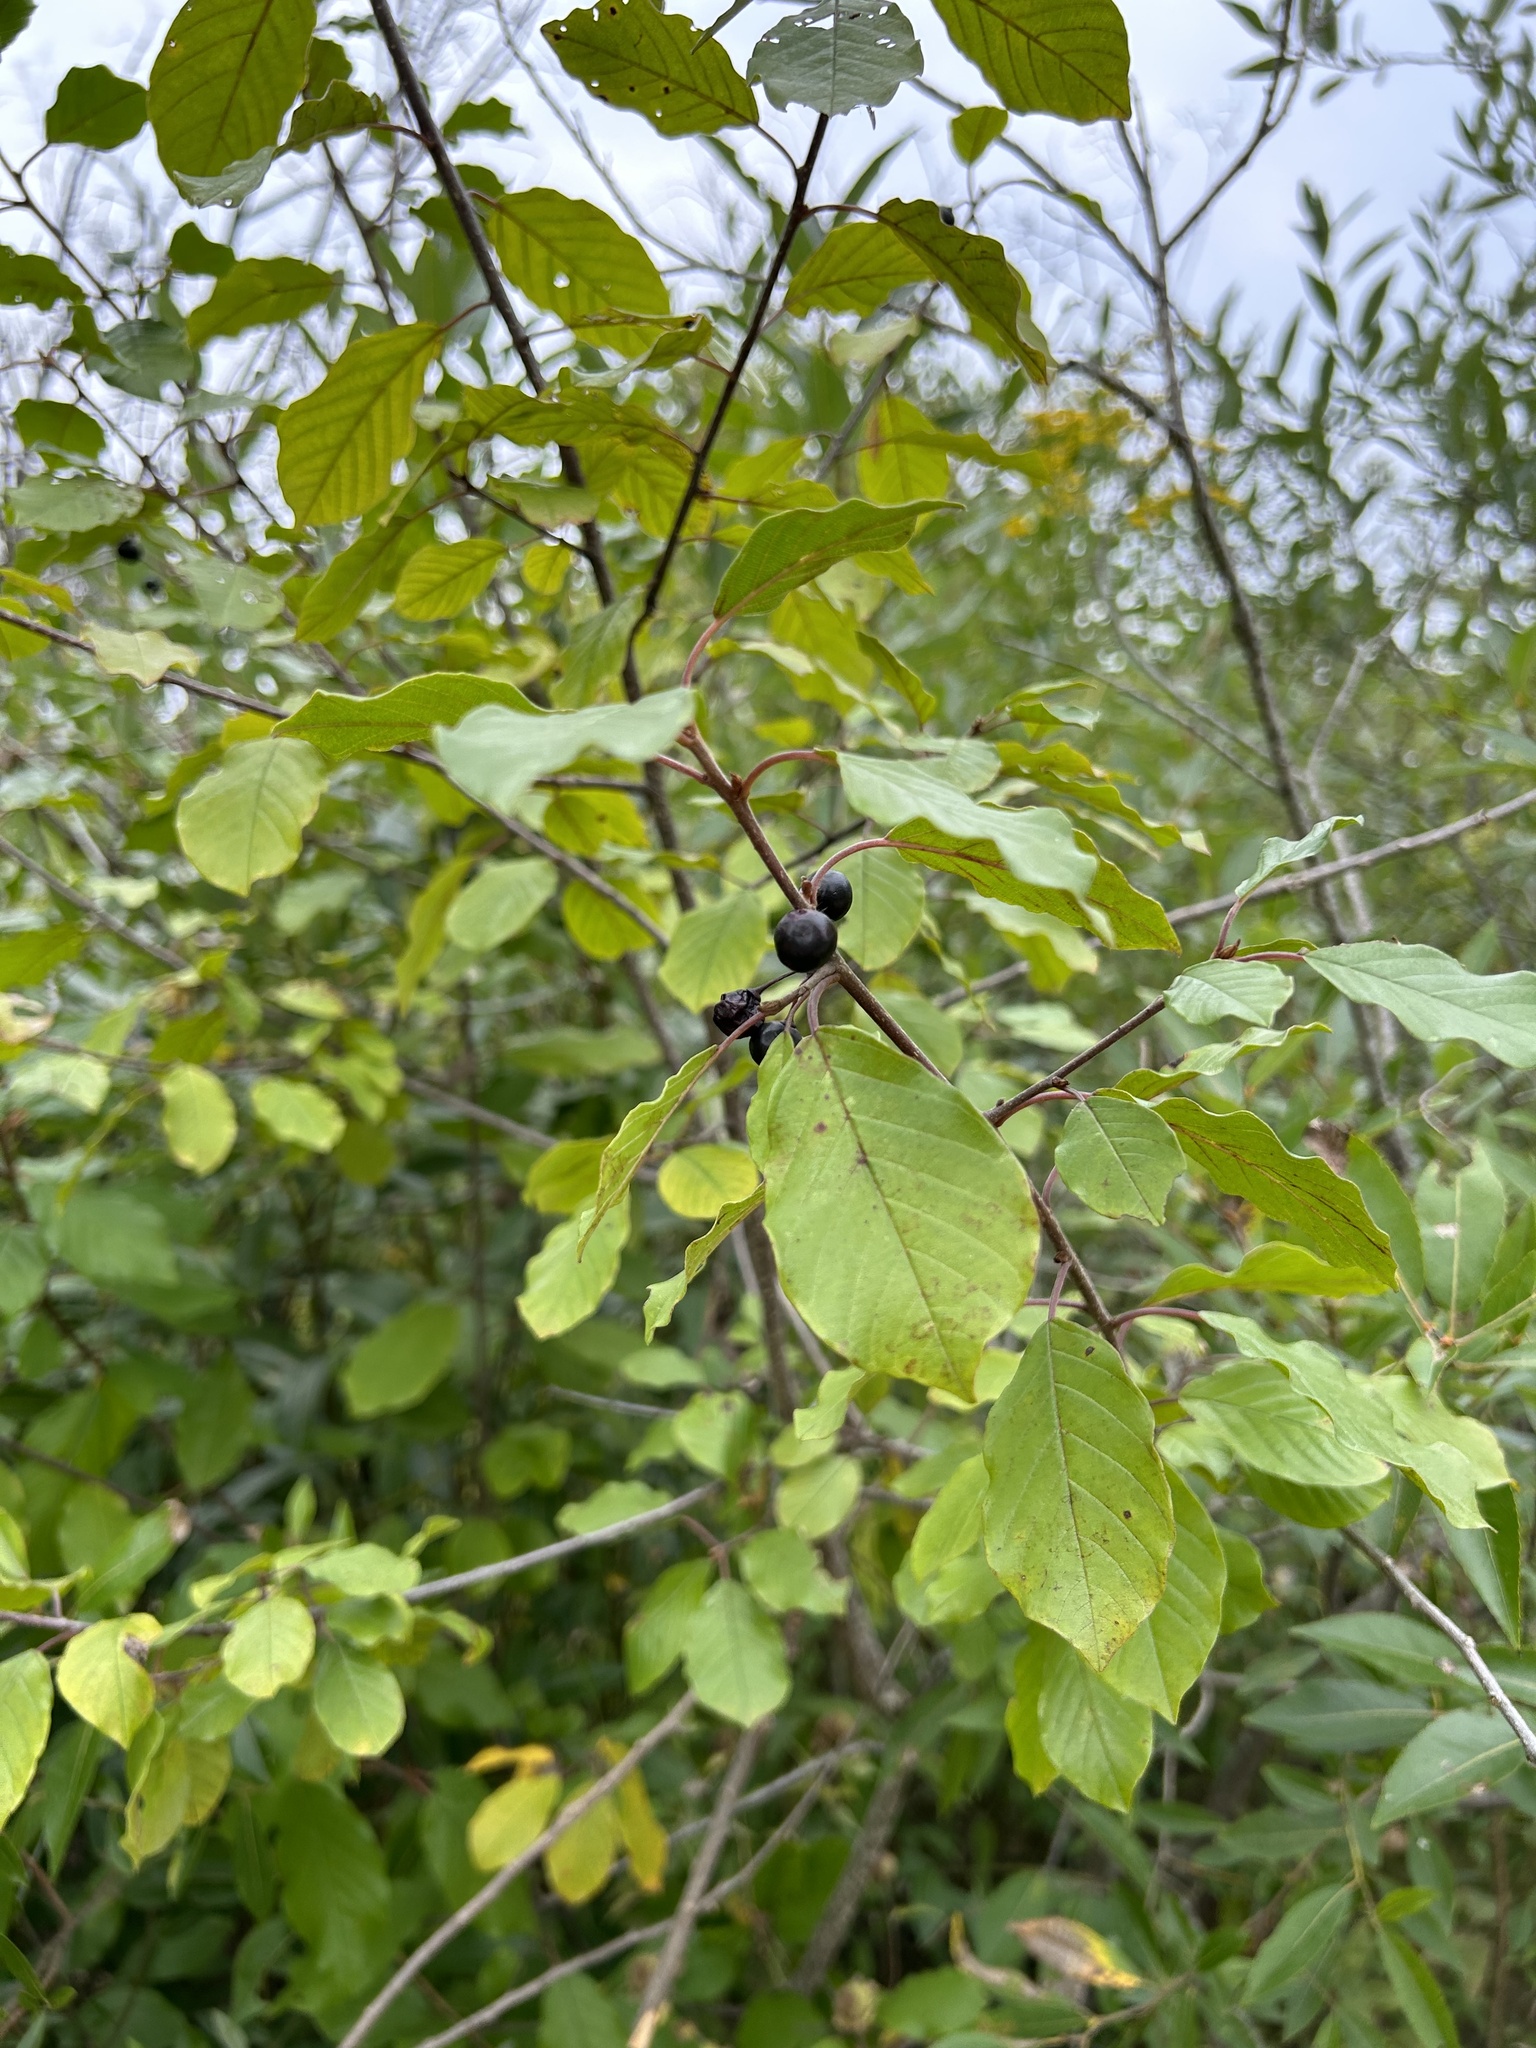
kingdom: Plantae
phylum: Tracheophyta
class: Magnoliopsida
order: Rosales
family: Rhamnaceae
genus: Frangula
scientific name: Frangula alnus
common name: Alder buckthorn
